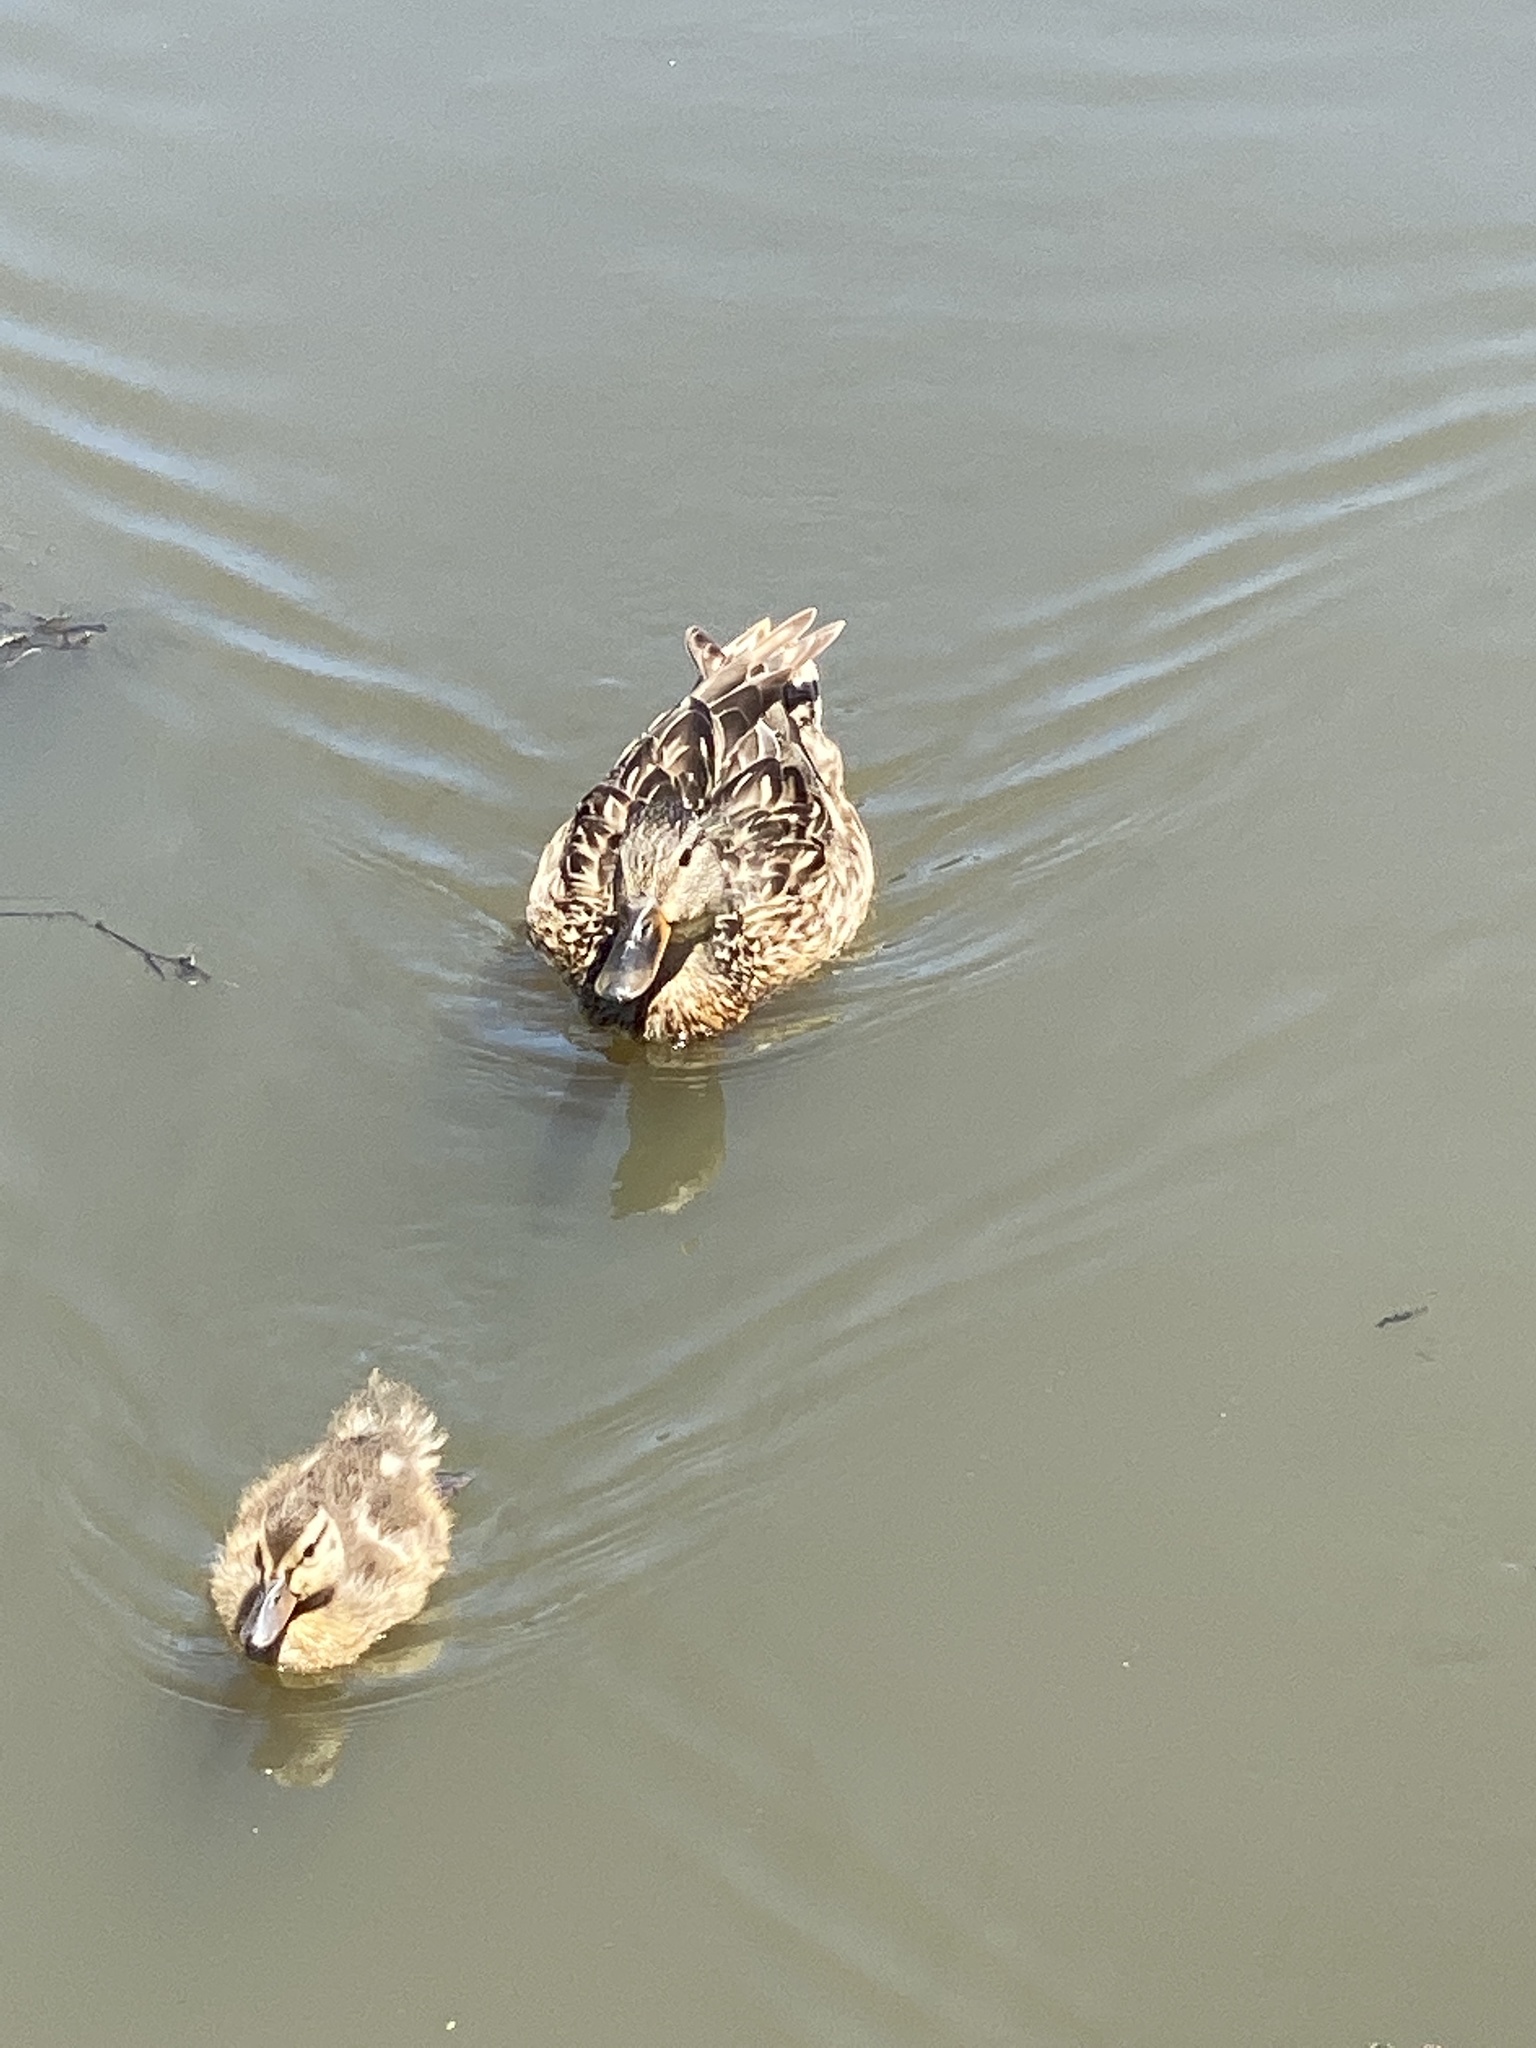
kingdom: Animalia
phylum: Chordata
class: Aves
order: Anseriformes
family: Anatidae
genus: Anas
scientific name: Anas platyrhynchos
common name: Mallard
